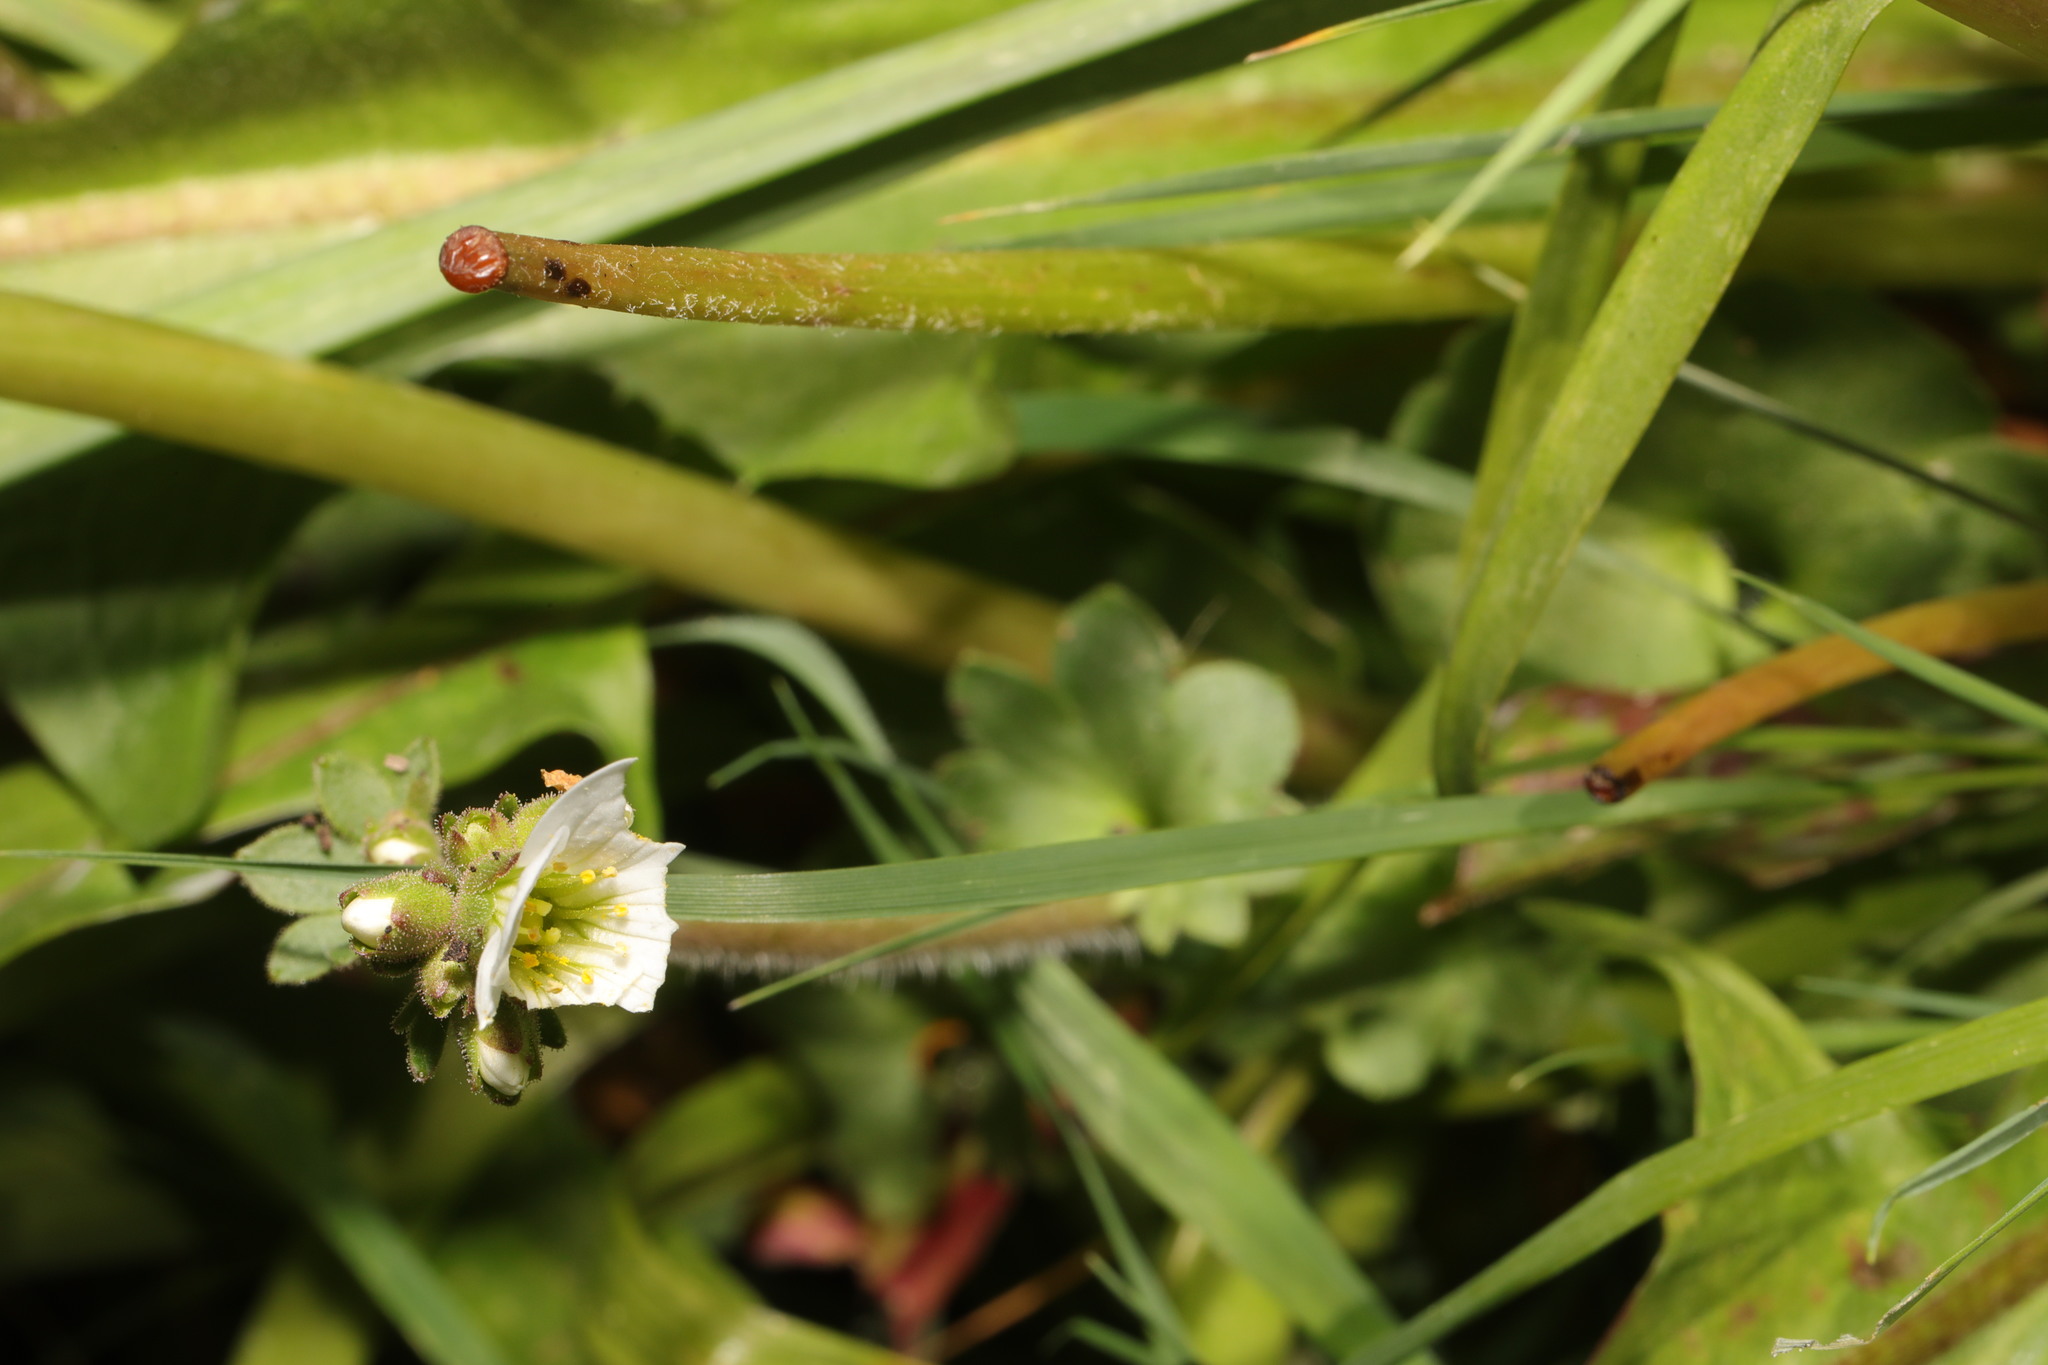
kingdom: Plantae
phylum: Tracheophyta
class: Magnoliopsida
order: Saxifragales
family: Saxifragaceae
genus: Saxifraga
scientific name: Saxifraga granulata
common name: Meadow saxifrage
